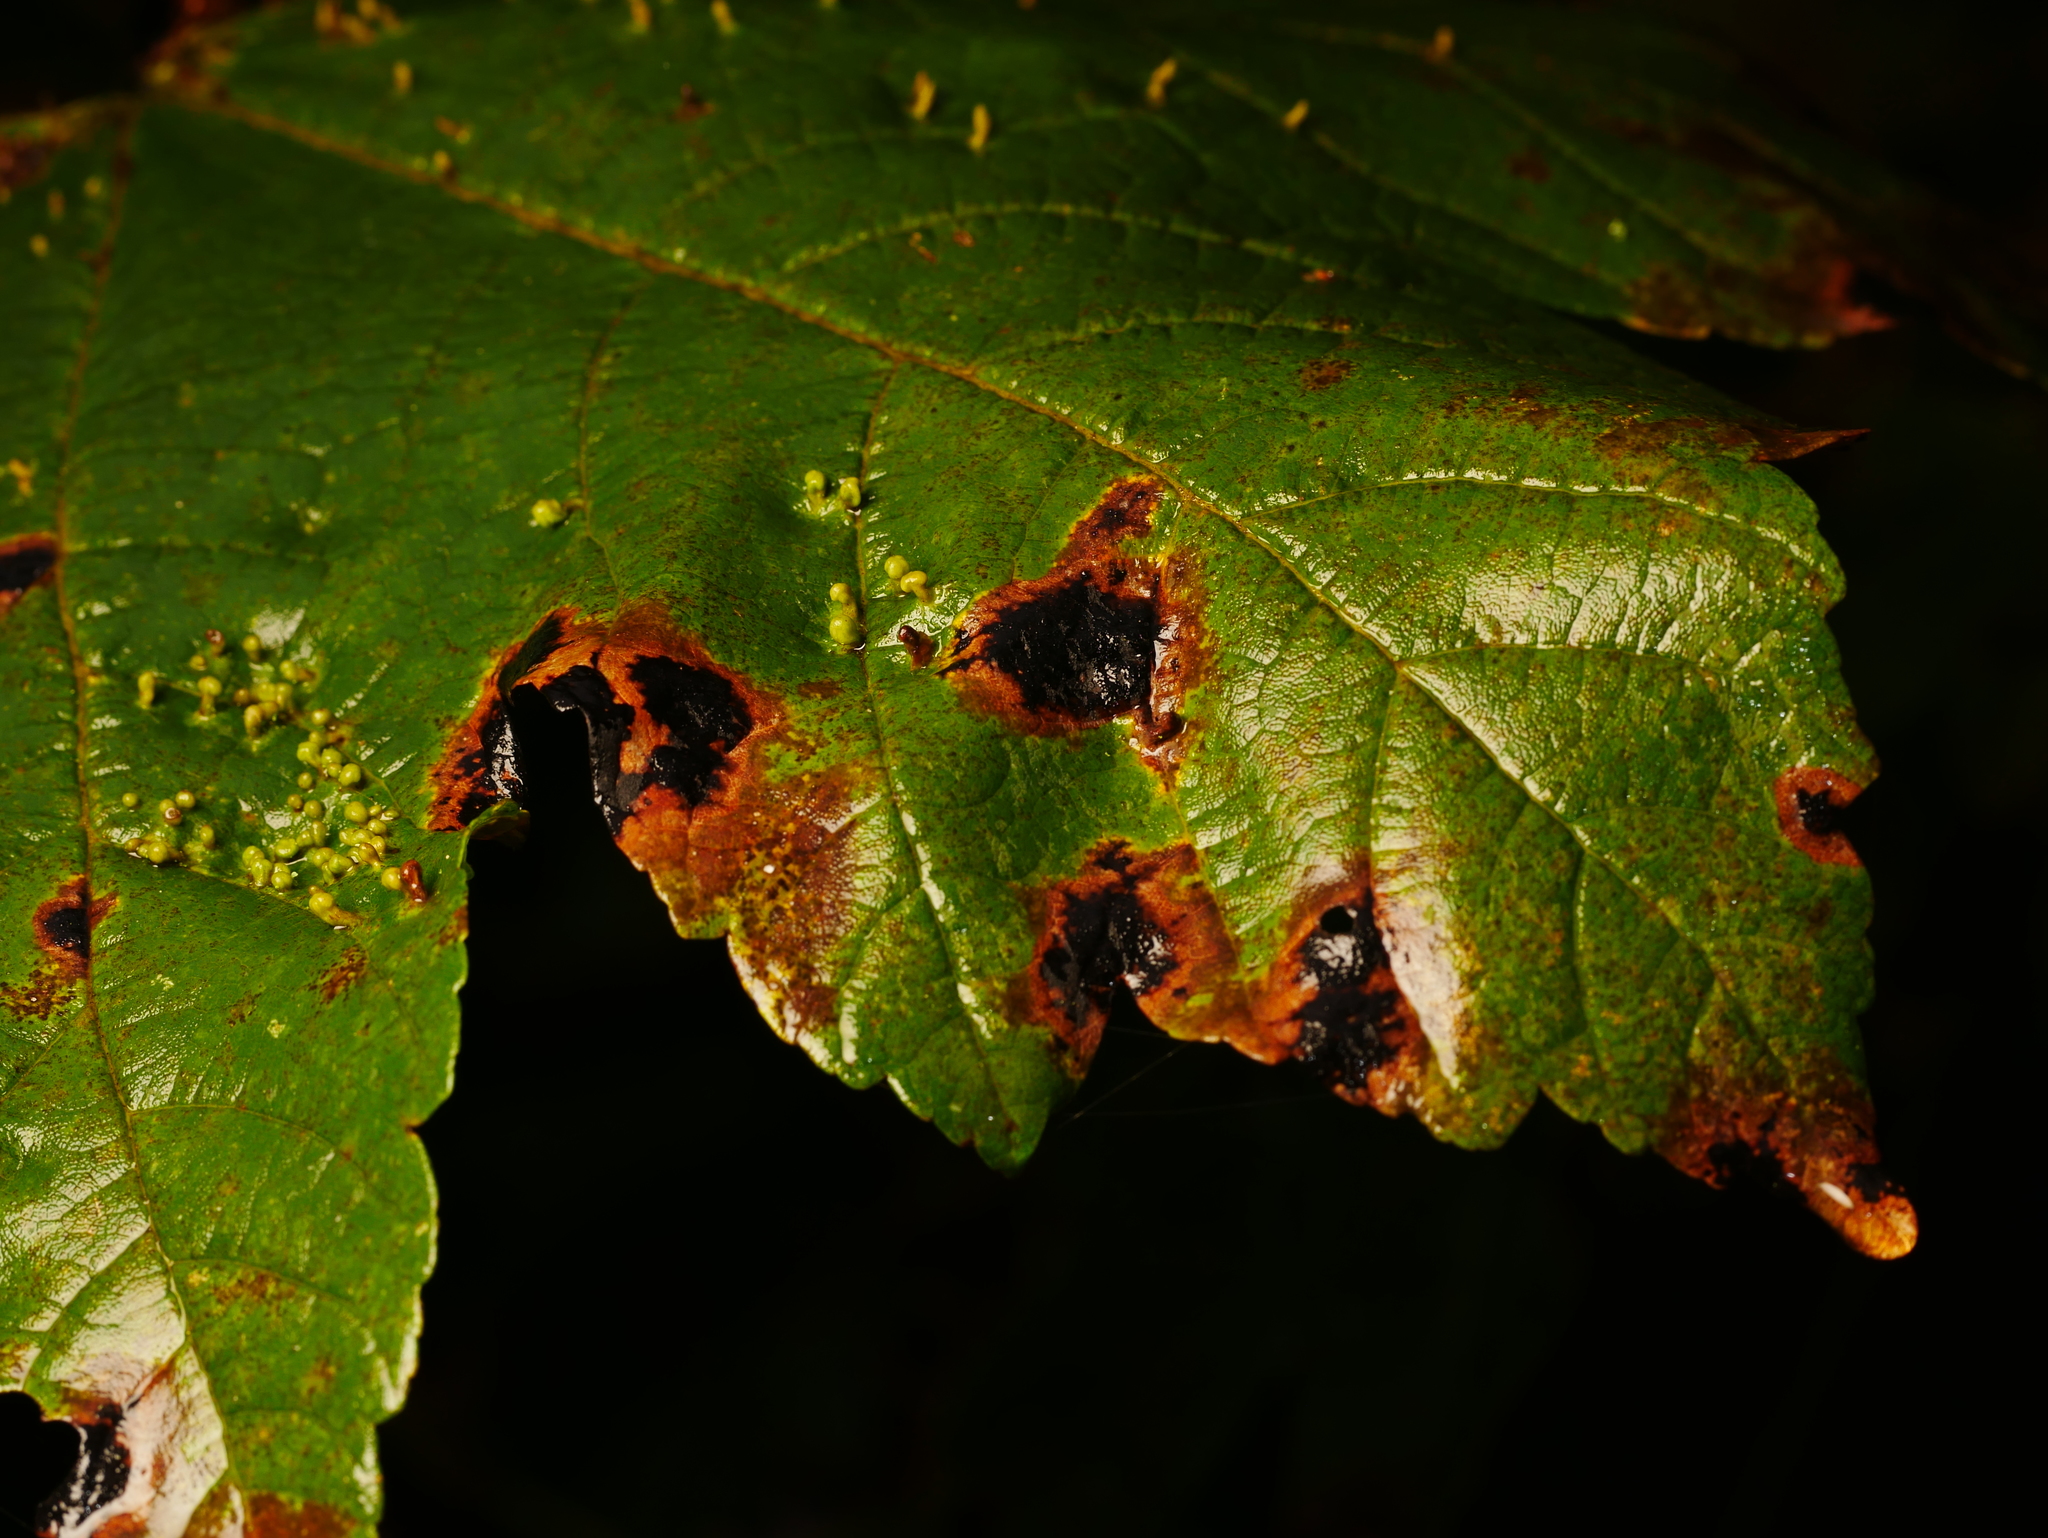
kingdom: Fungi
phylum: Ascomycota
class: Leotiomycetes
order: Rhytismatales
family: Rhytismataceae
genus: Rhytisma
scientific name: Rhytisma acerinum
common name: European tar spot
